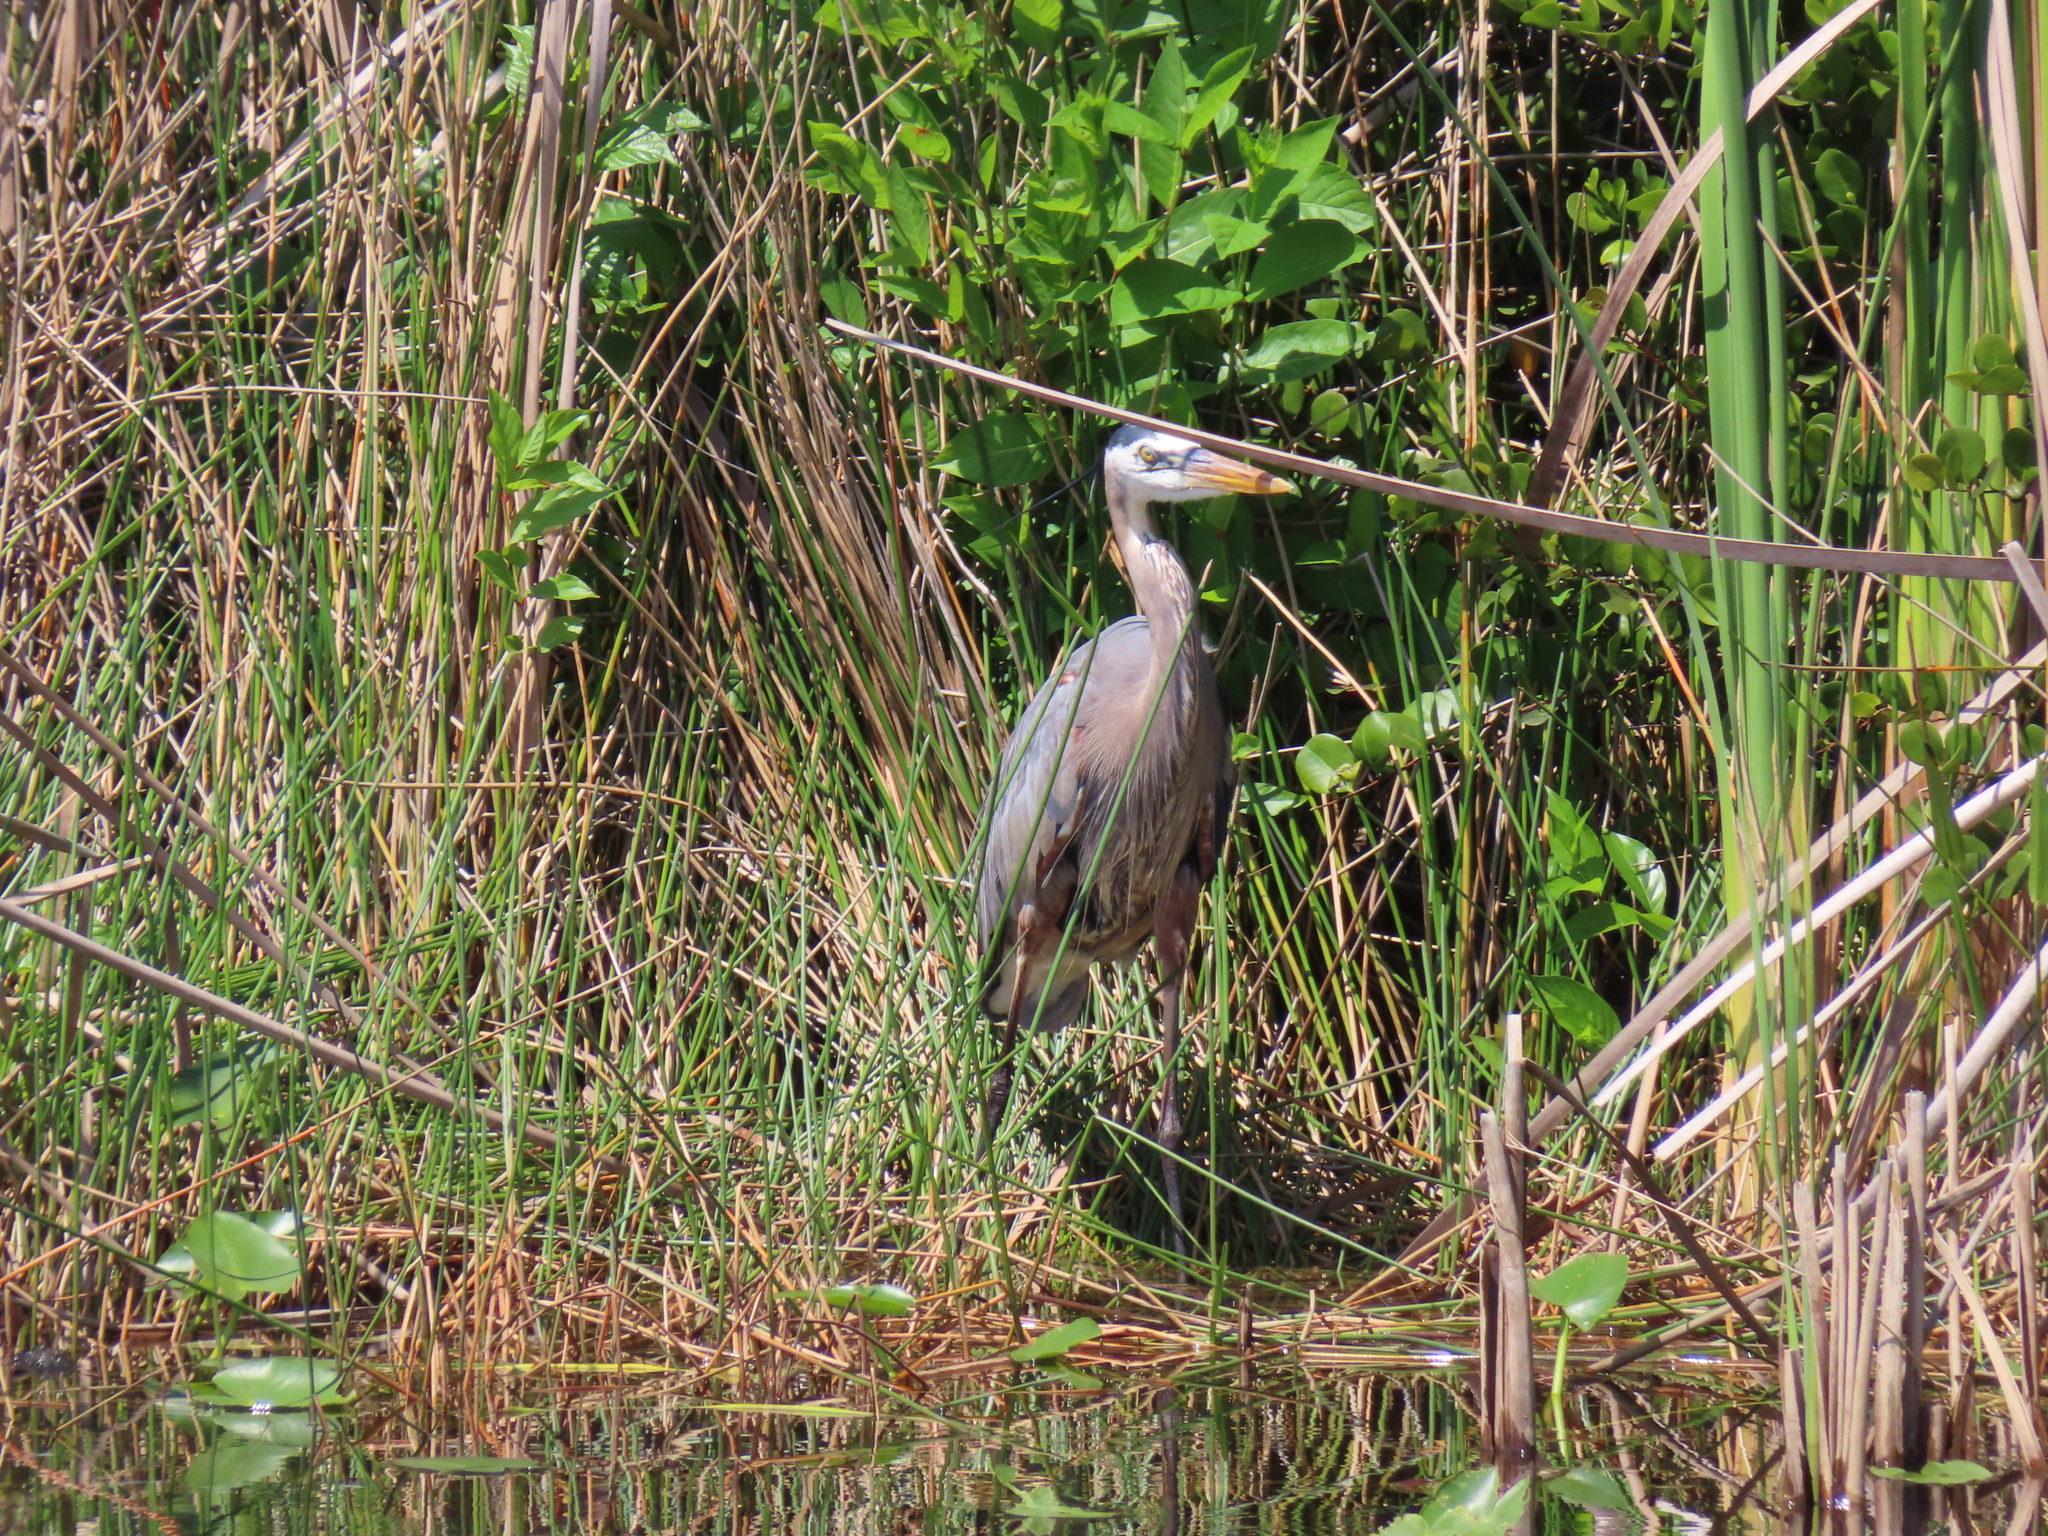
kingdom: Animalia
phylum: Chordata
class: Aves
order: Pelecaniformes
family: Ardeidae
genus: Ardea
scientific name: Ardea herodias
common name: Great blue heron
